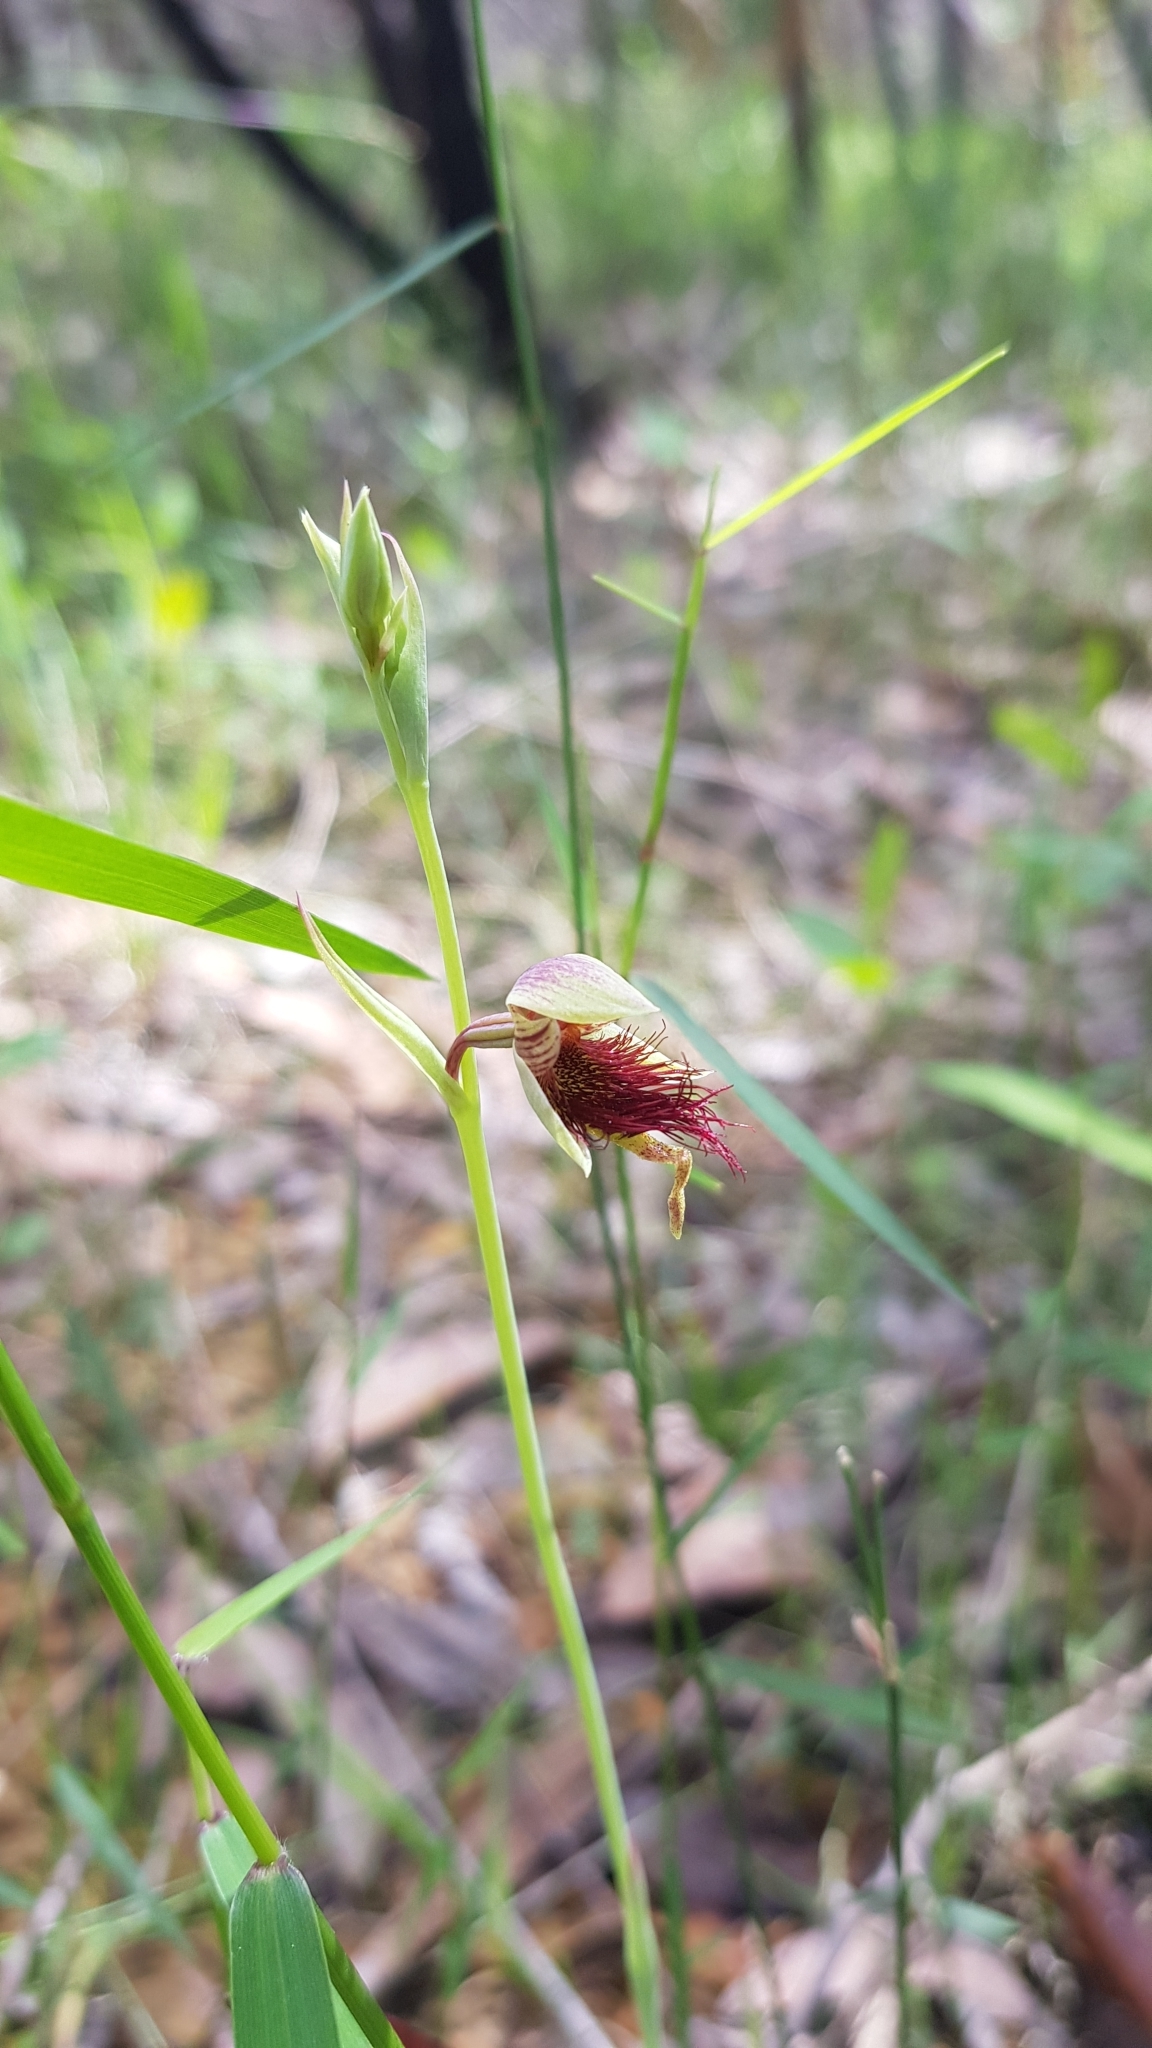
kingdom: Plantae
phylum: Tracheophyta
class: Liliopsida
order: Asparagales
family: Orchidaceae
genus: Calochilus
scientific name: Calochilus paludosus
